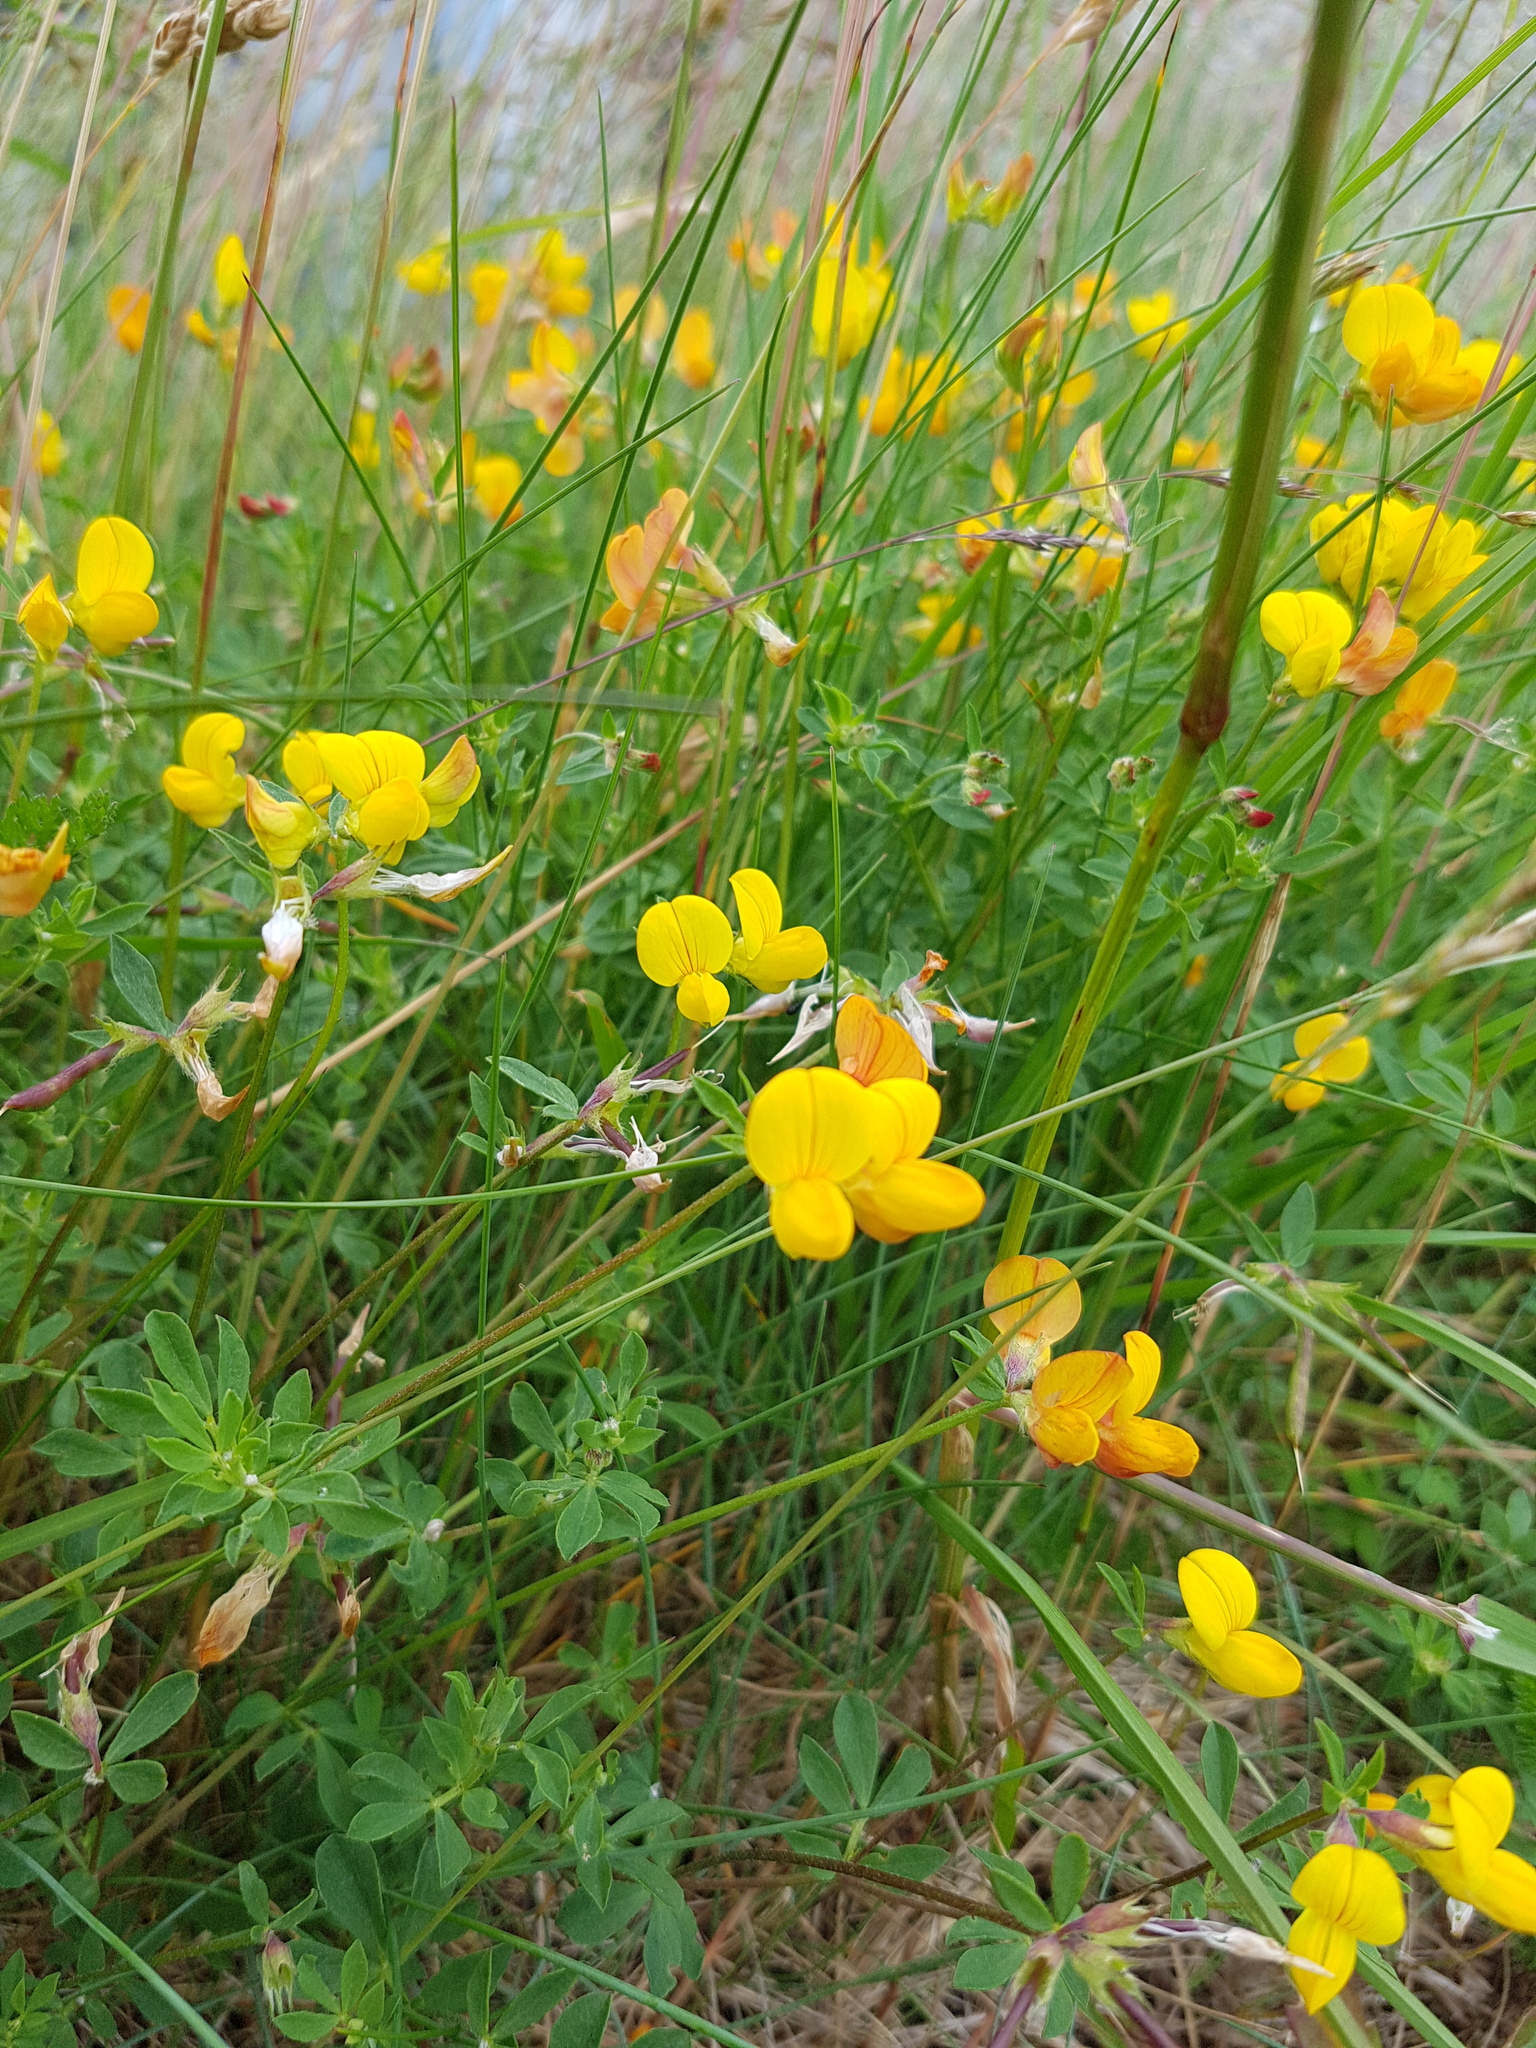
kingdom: Plantae
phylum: Tracheophyta
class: Magnoliopsida
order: Fabales
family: Fabaceae
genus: Lotus
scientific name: Lotus corniculatus
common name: Common bird's-foot-trefoil
